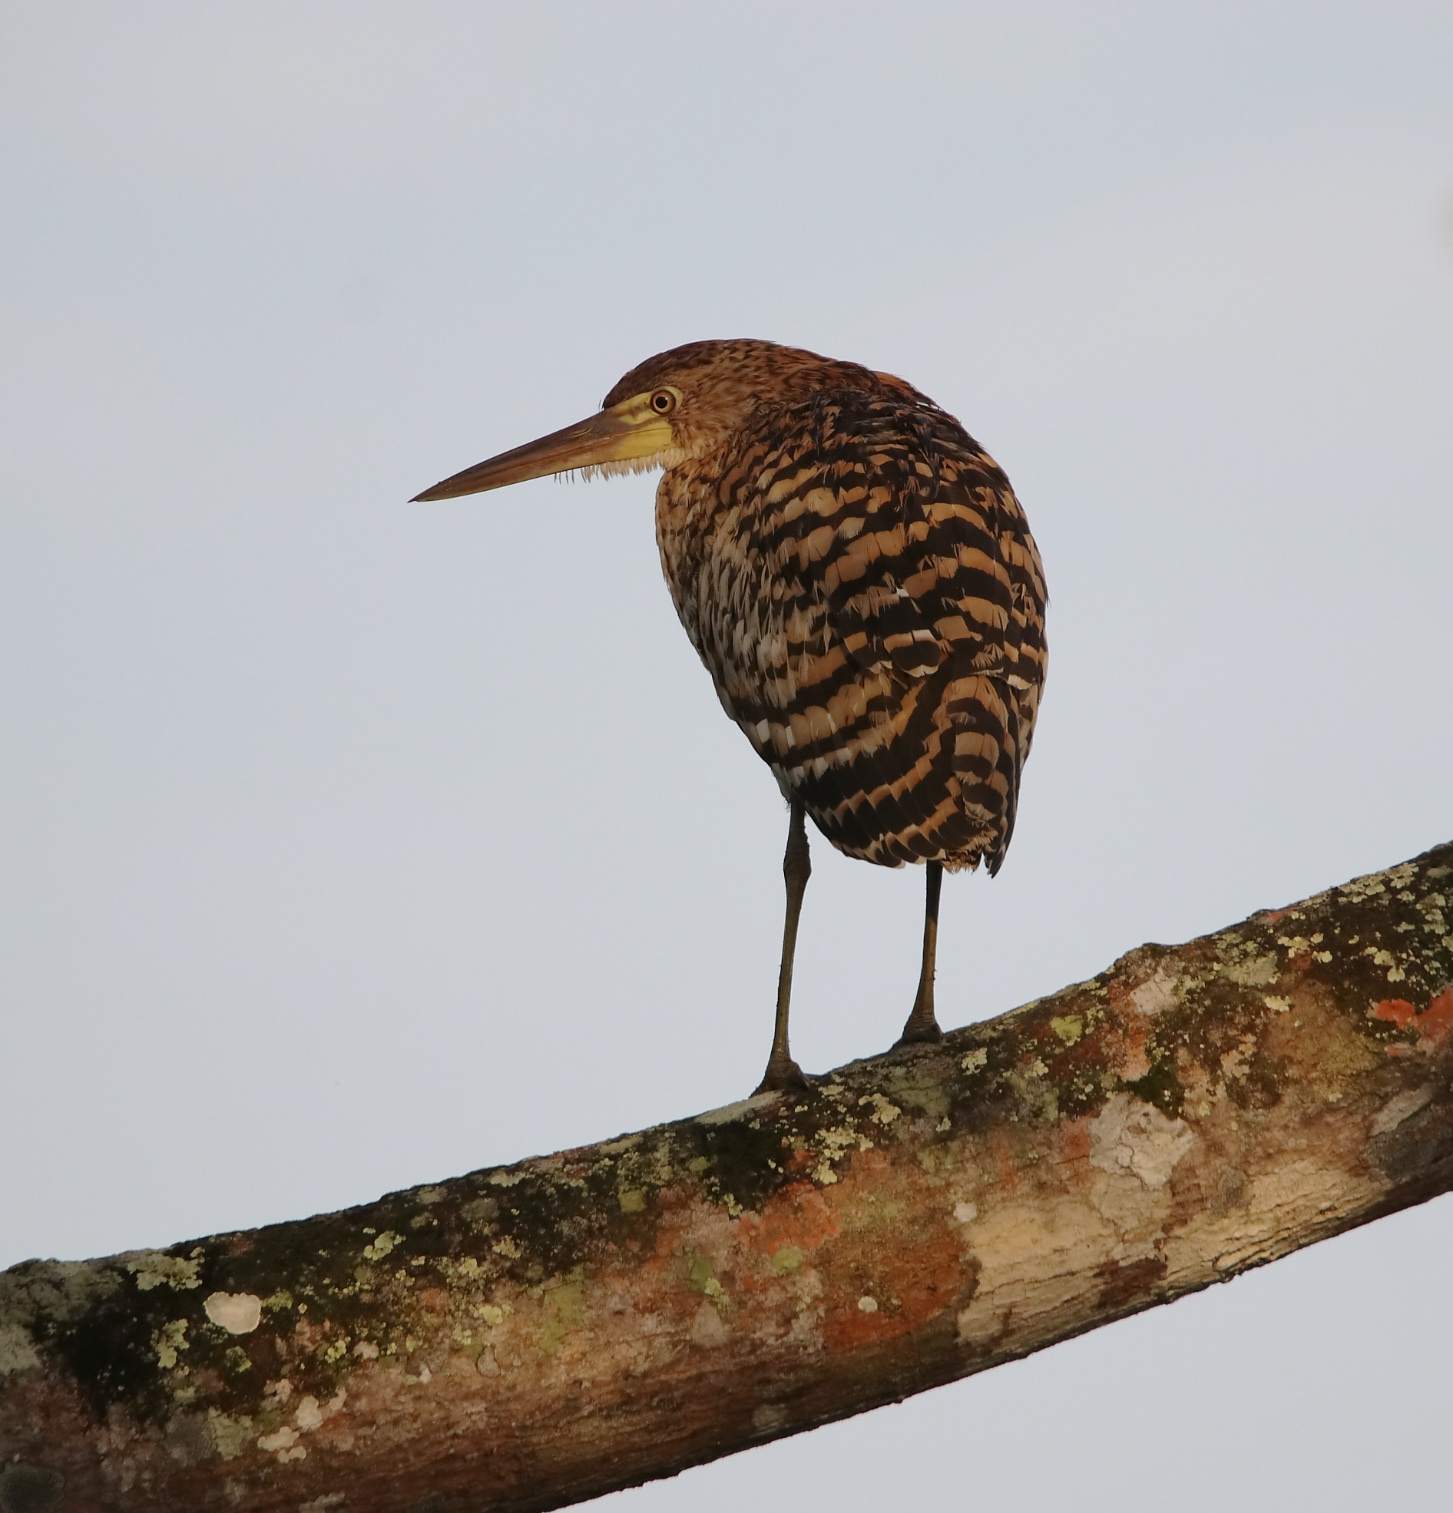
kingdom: Animalia
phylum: Chordata
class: Aves
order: Pelecaniformes
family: Ardeidae
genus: Tigrisoma
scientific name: Tigrisoma lineatum
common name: Rufescent tiger-heron
